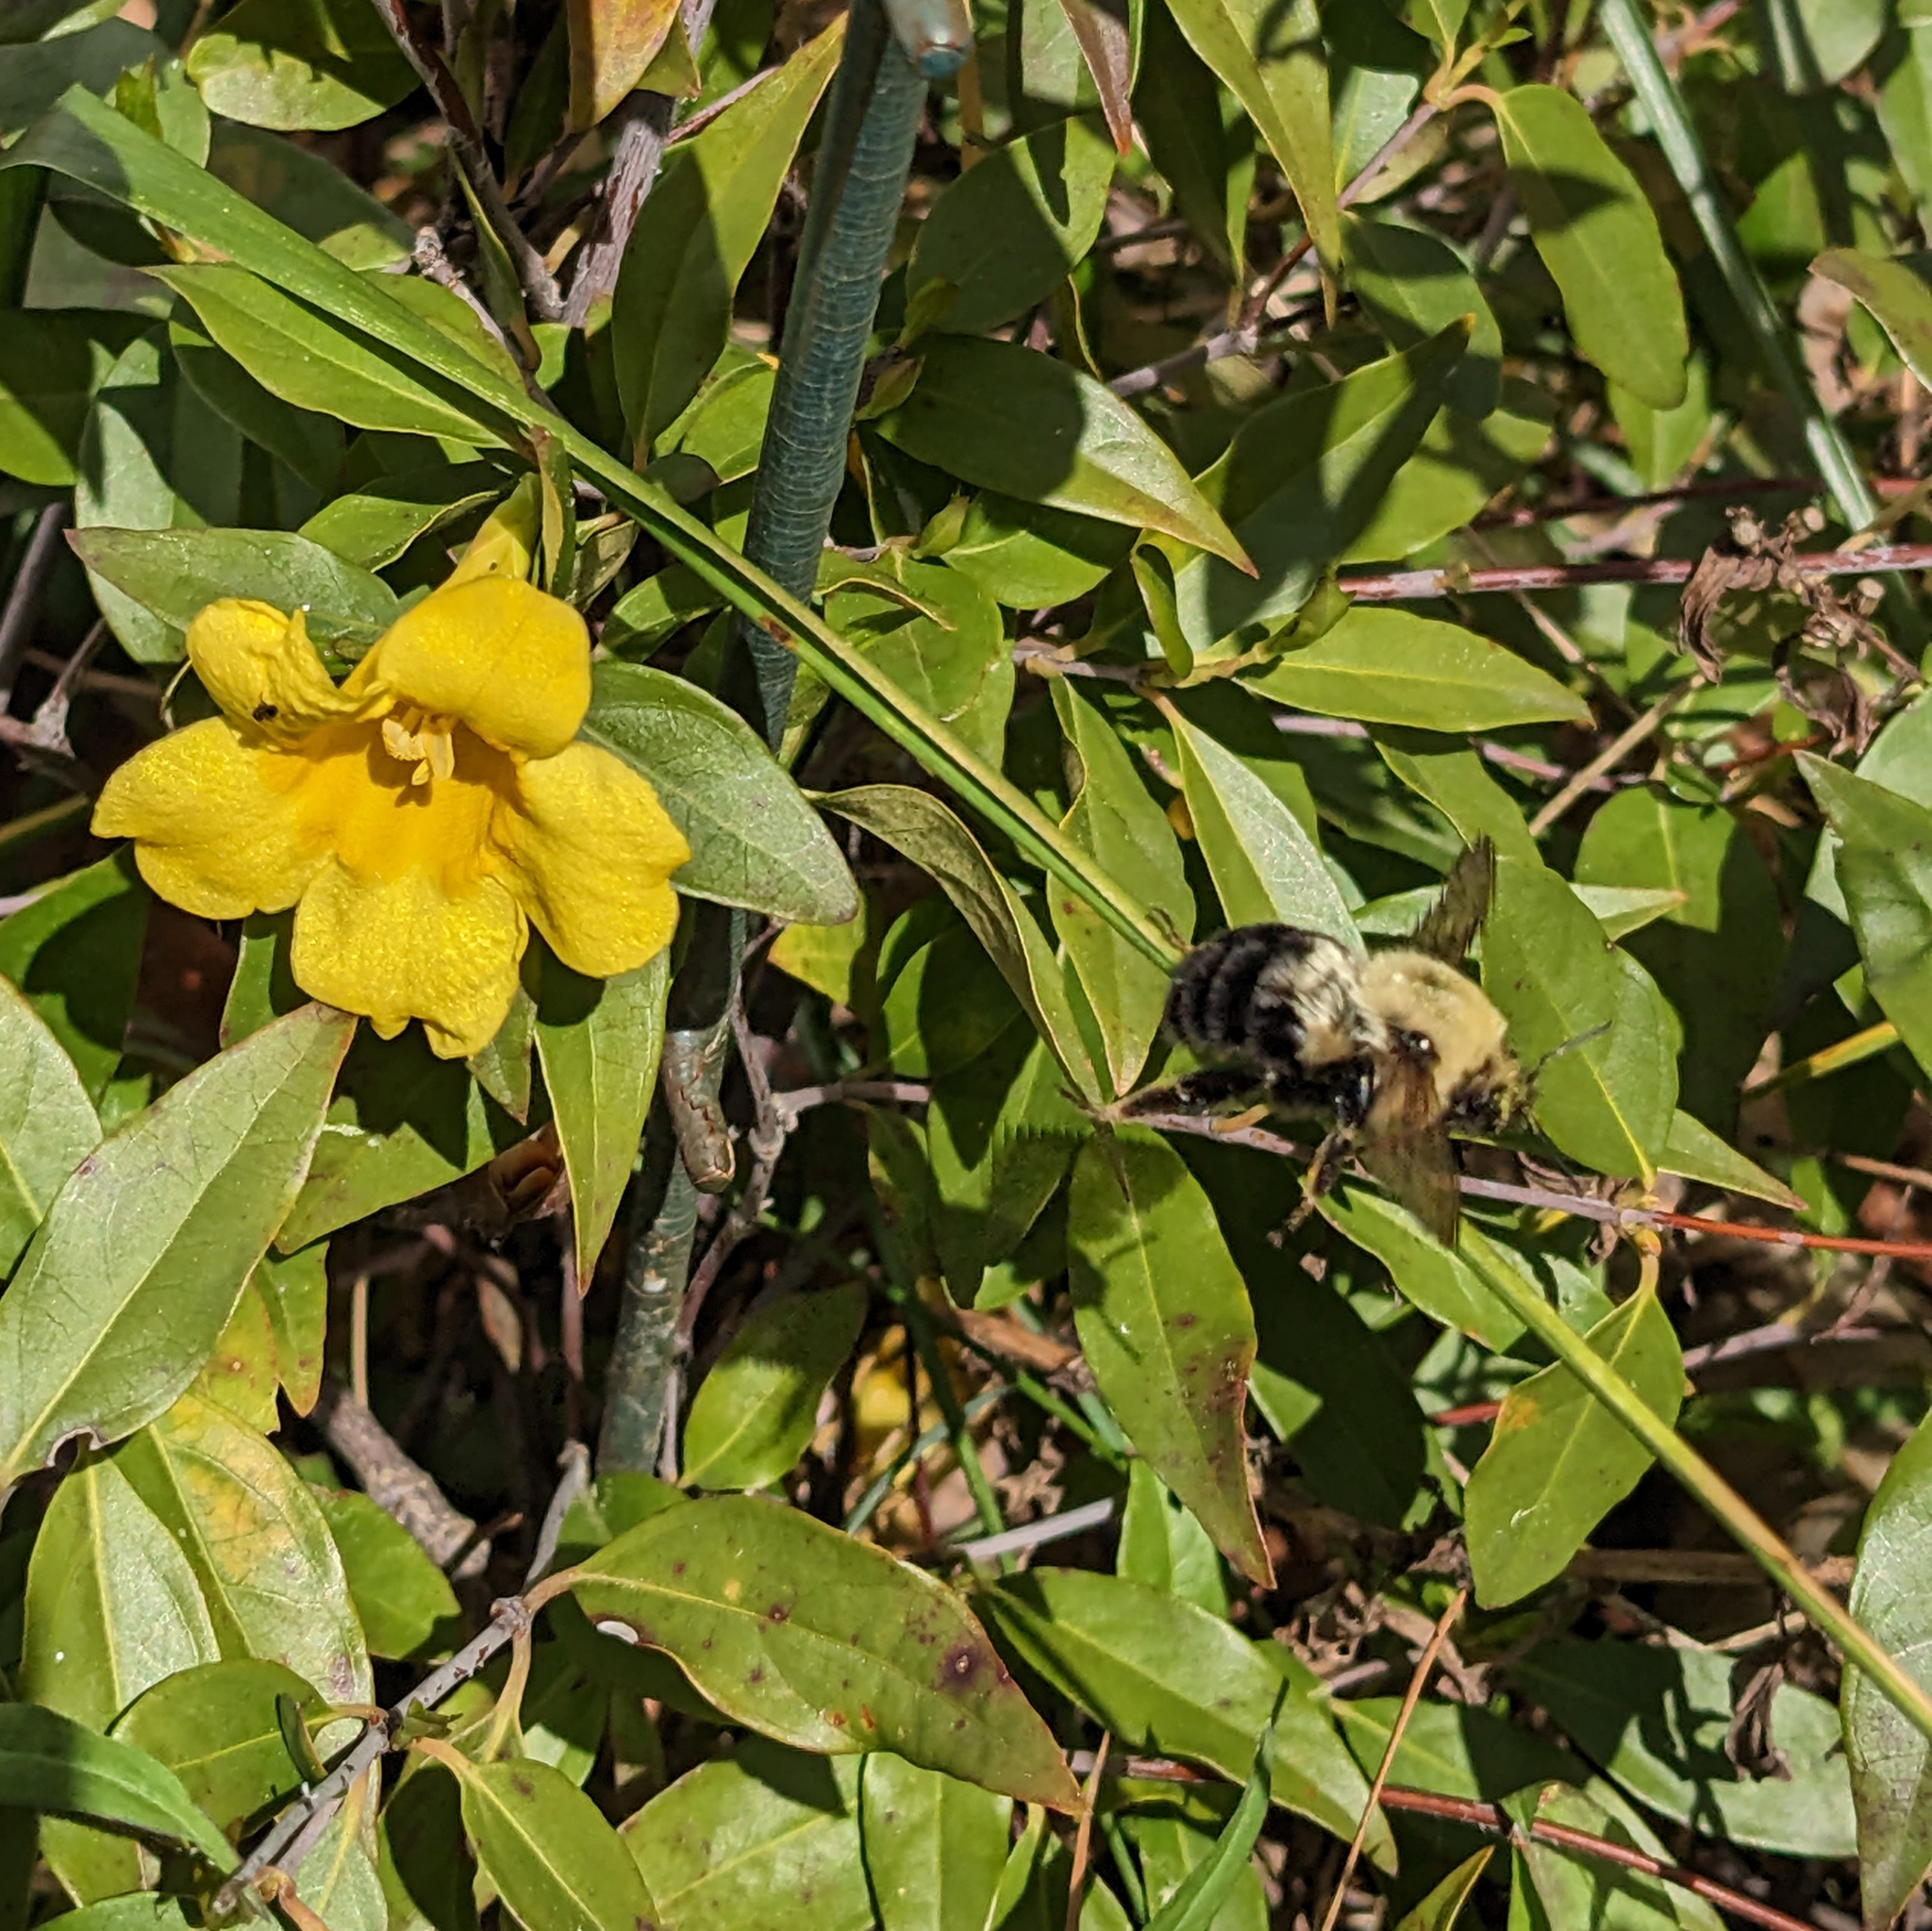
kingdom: Animalia
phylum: Arthropoda
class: Insecta
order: Hymenoptera
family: Apidae
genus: Bombus
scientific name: Bombus bimaculatus
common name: Two-spotted bumble bee
